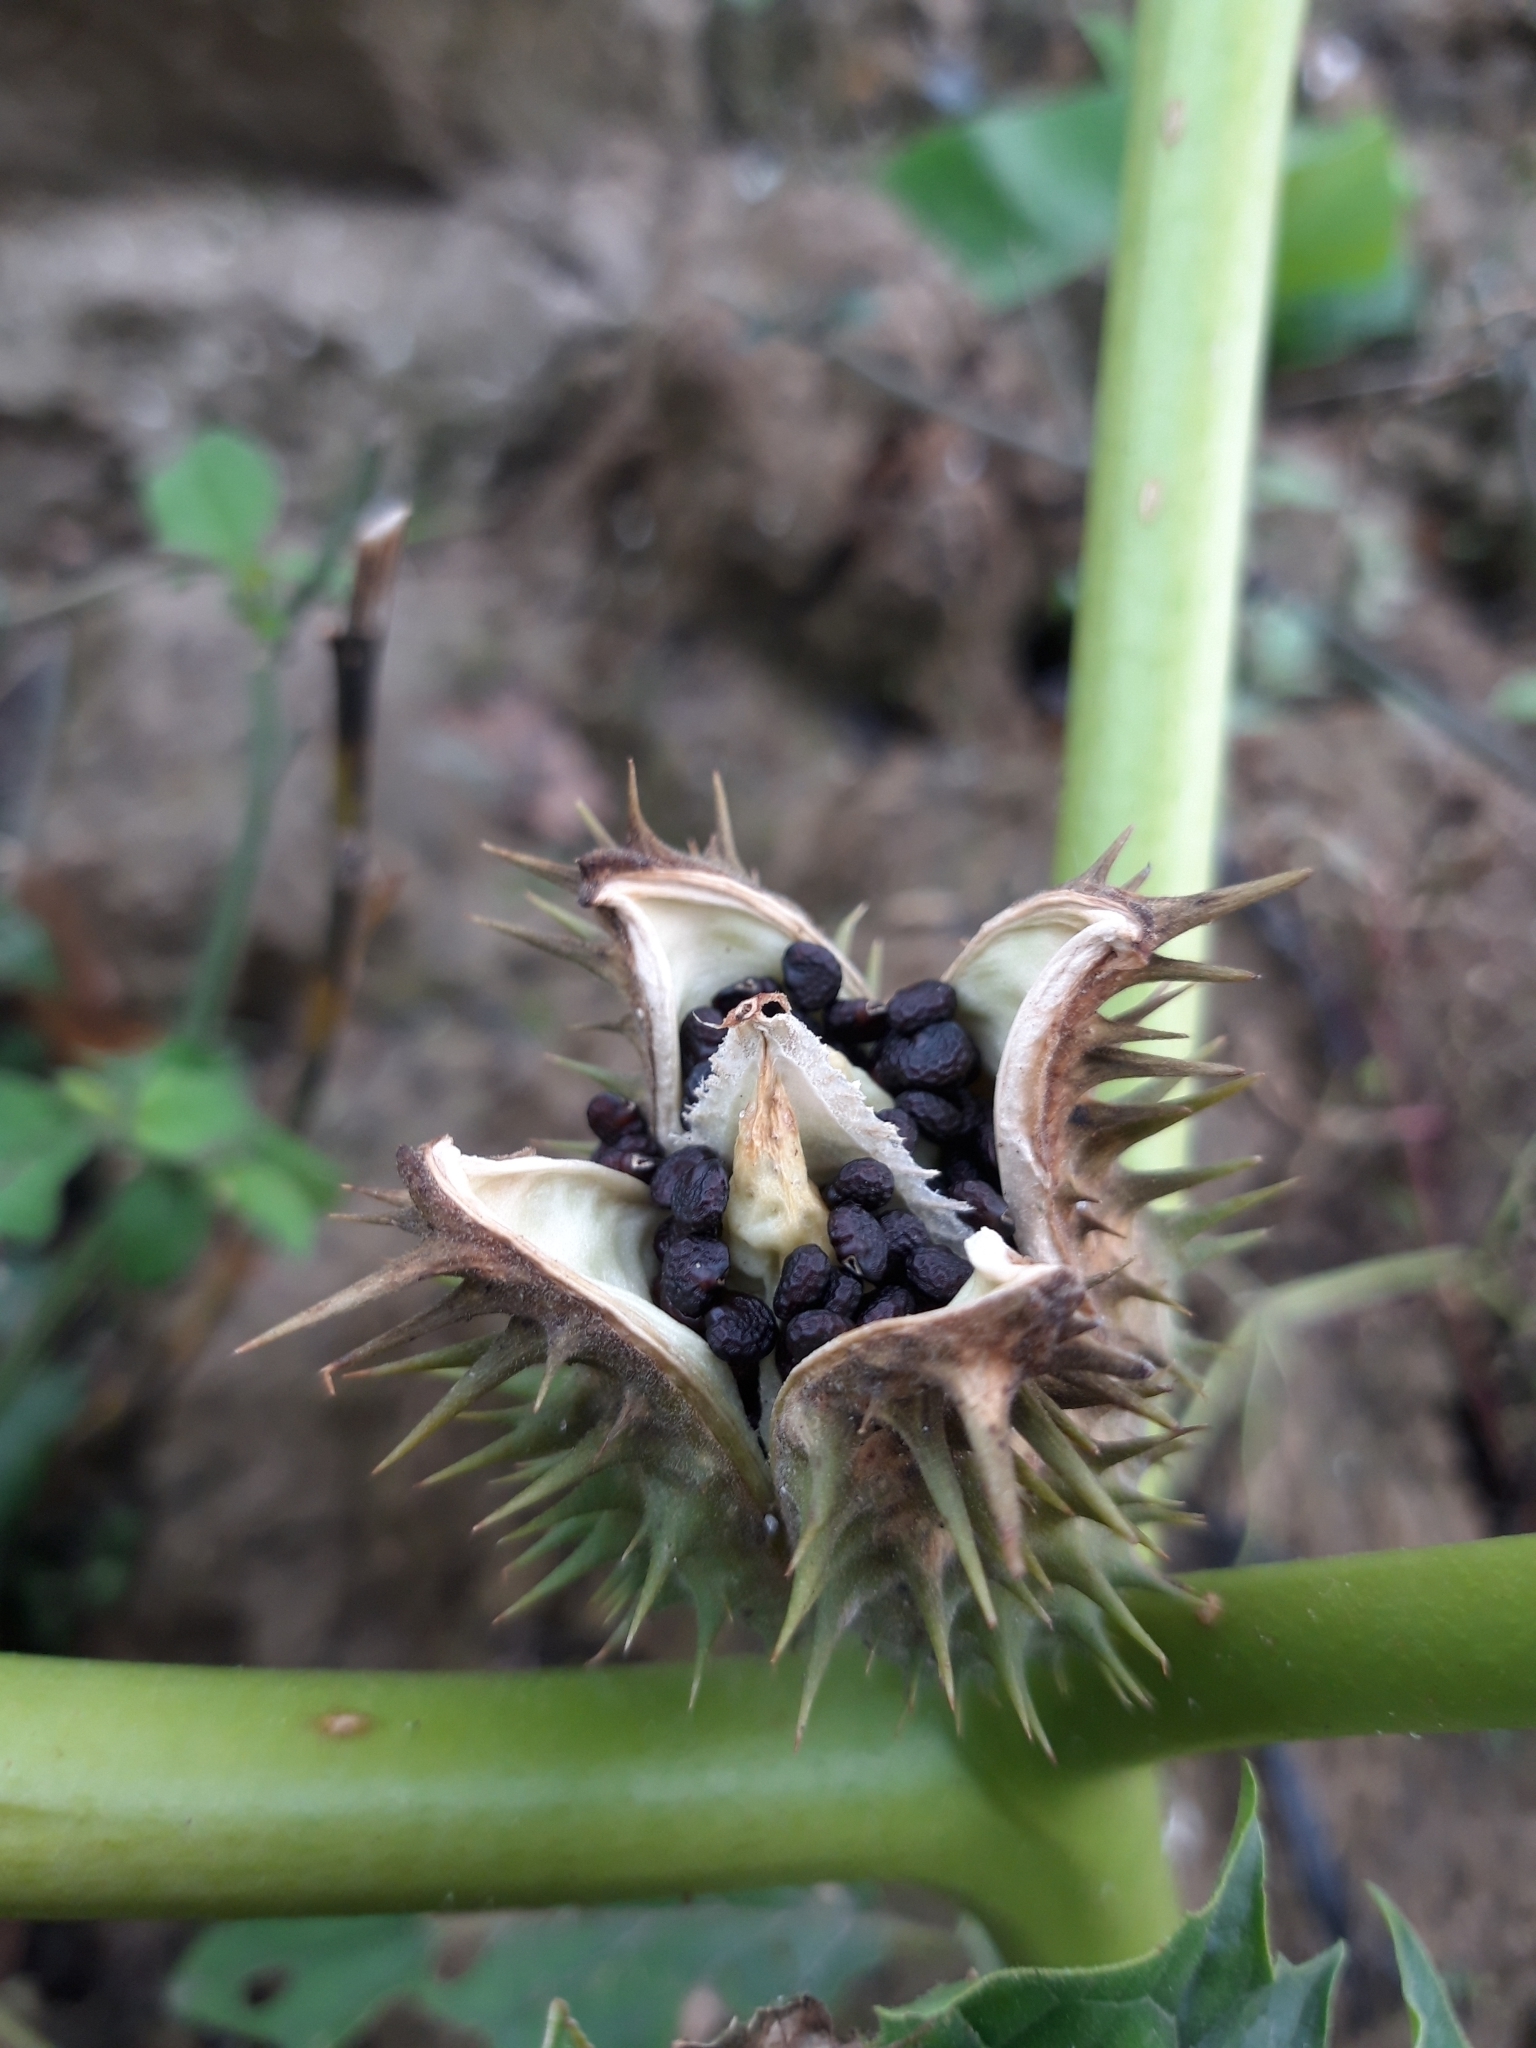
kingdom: Plantae
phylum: Tracheophyta
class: Magnoliopsida
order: Solanales
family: Solanaceae
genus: Datura
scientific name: Datura stramonium
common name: Thorn-apple
